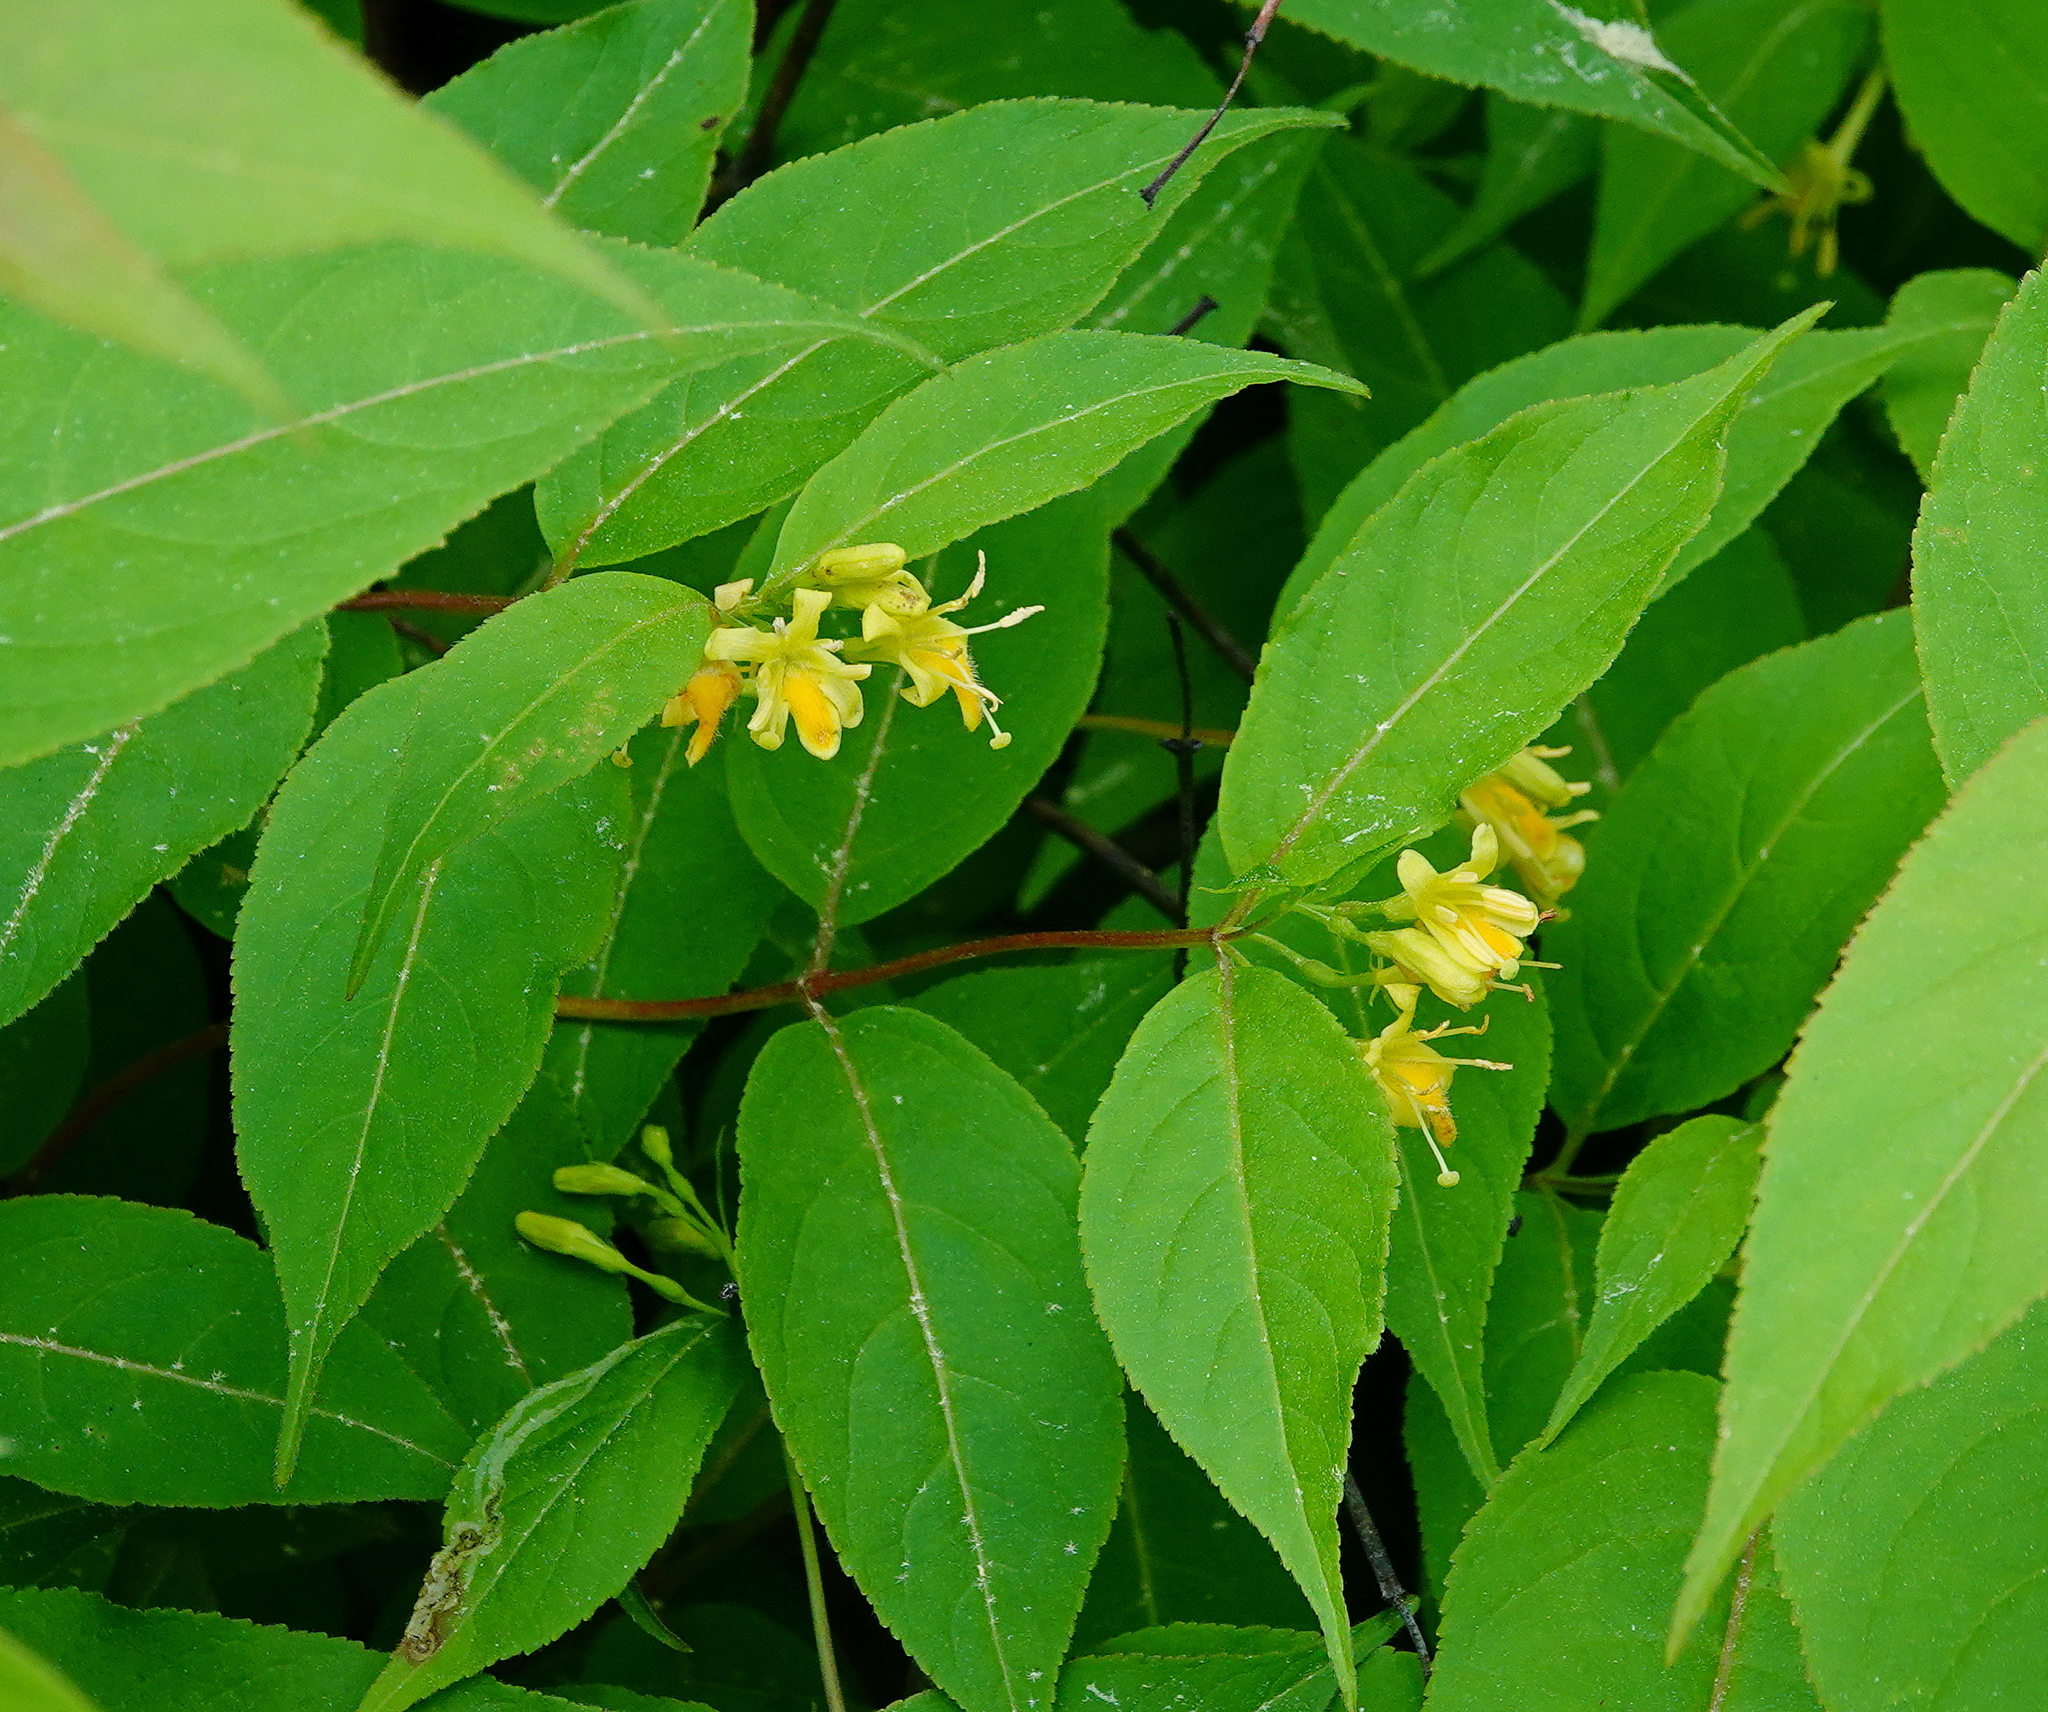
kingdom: Plantae
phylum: Tracheophyta
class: Magnoliopsida
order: Dipsacales
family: Caprifoliaceae
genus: Diervilla
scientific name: Diervilla lonicera
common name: Bush-honeysuckle
